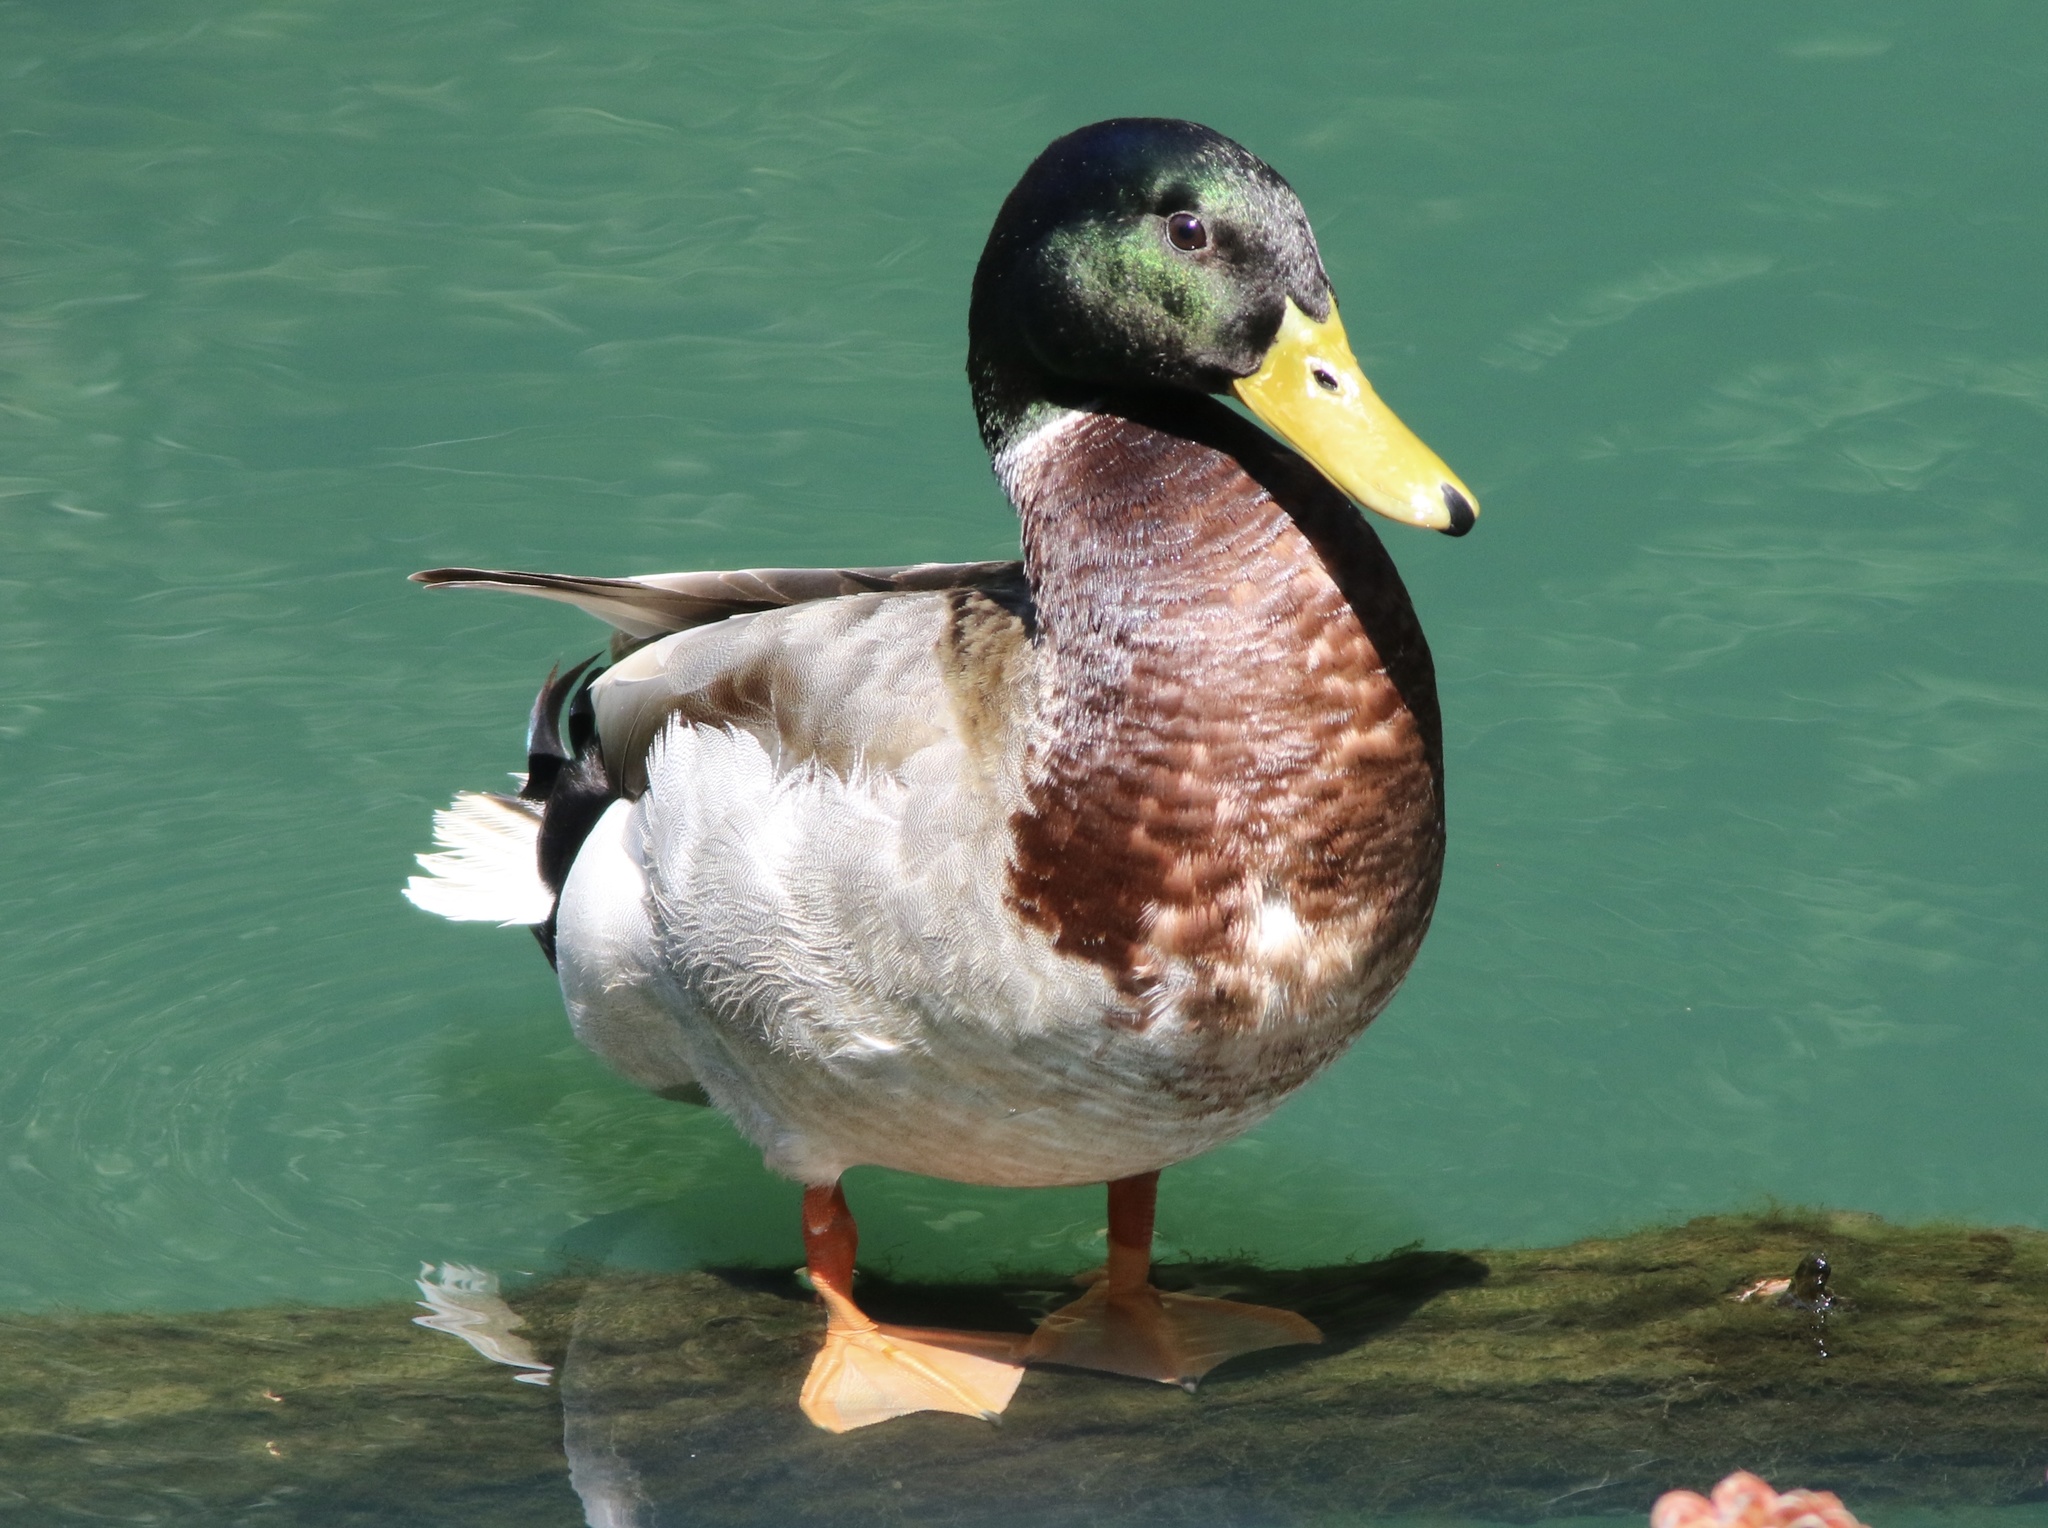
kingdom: Animalia
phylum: Chordata
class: Aves
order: Anseriformes
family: Anatidae
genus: Anas
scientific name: Anas platyrhynchos
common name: Mallard
